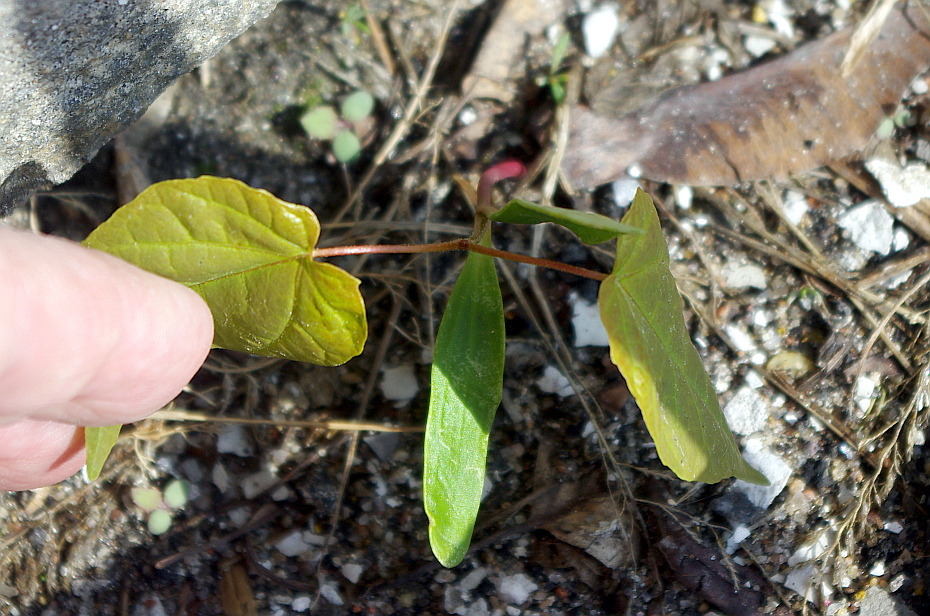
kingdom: Plantae
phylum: Tracheophyta
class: Magnoliopsida
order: Sapindales
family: Sapindaceae
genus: Acer
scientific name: Acer platanoides
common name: Norway maple
